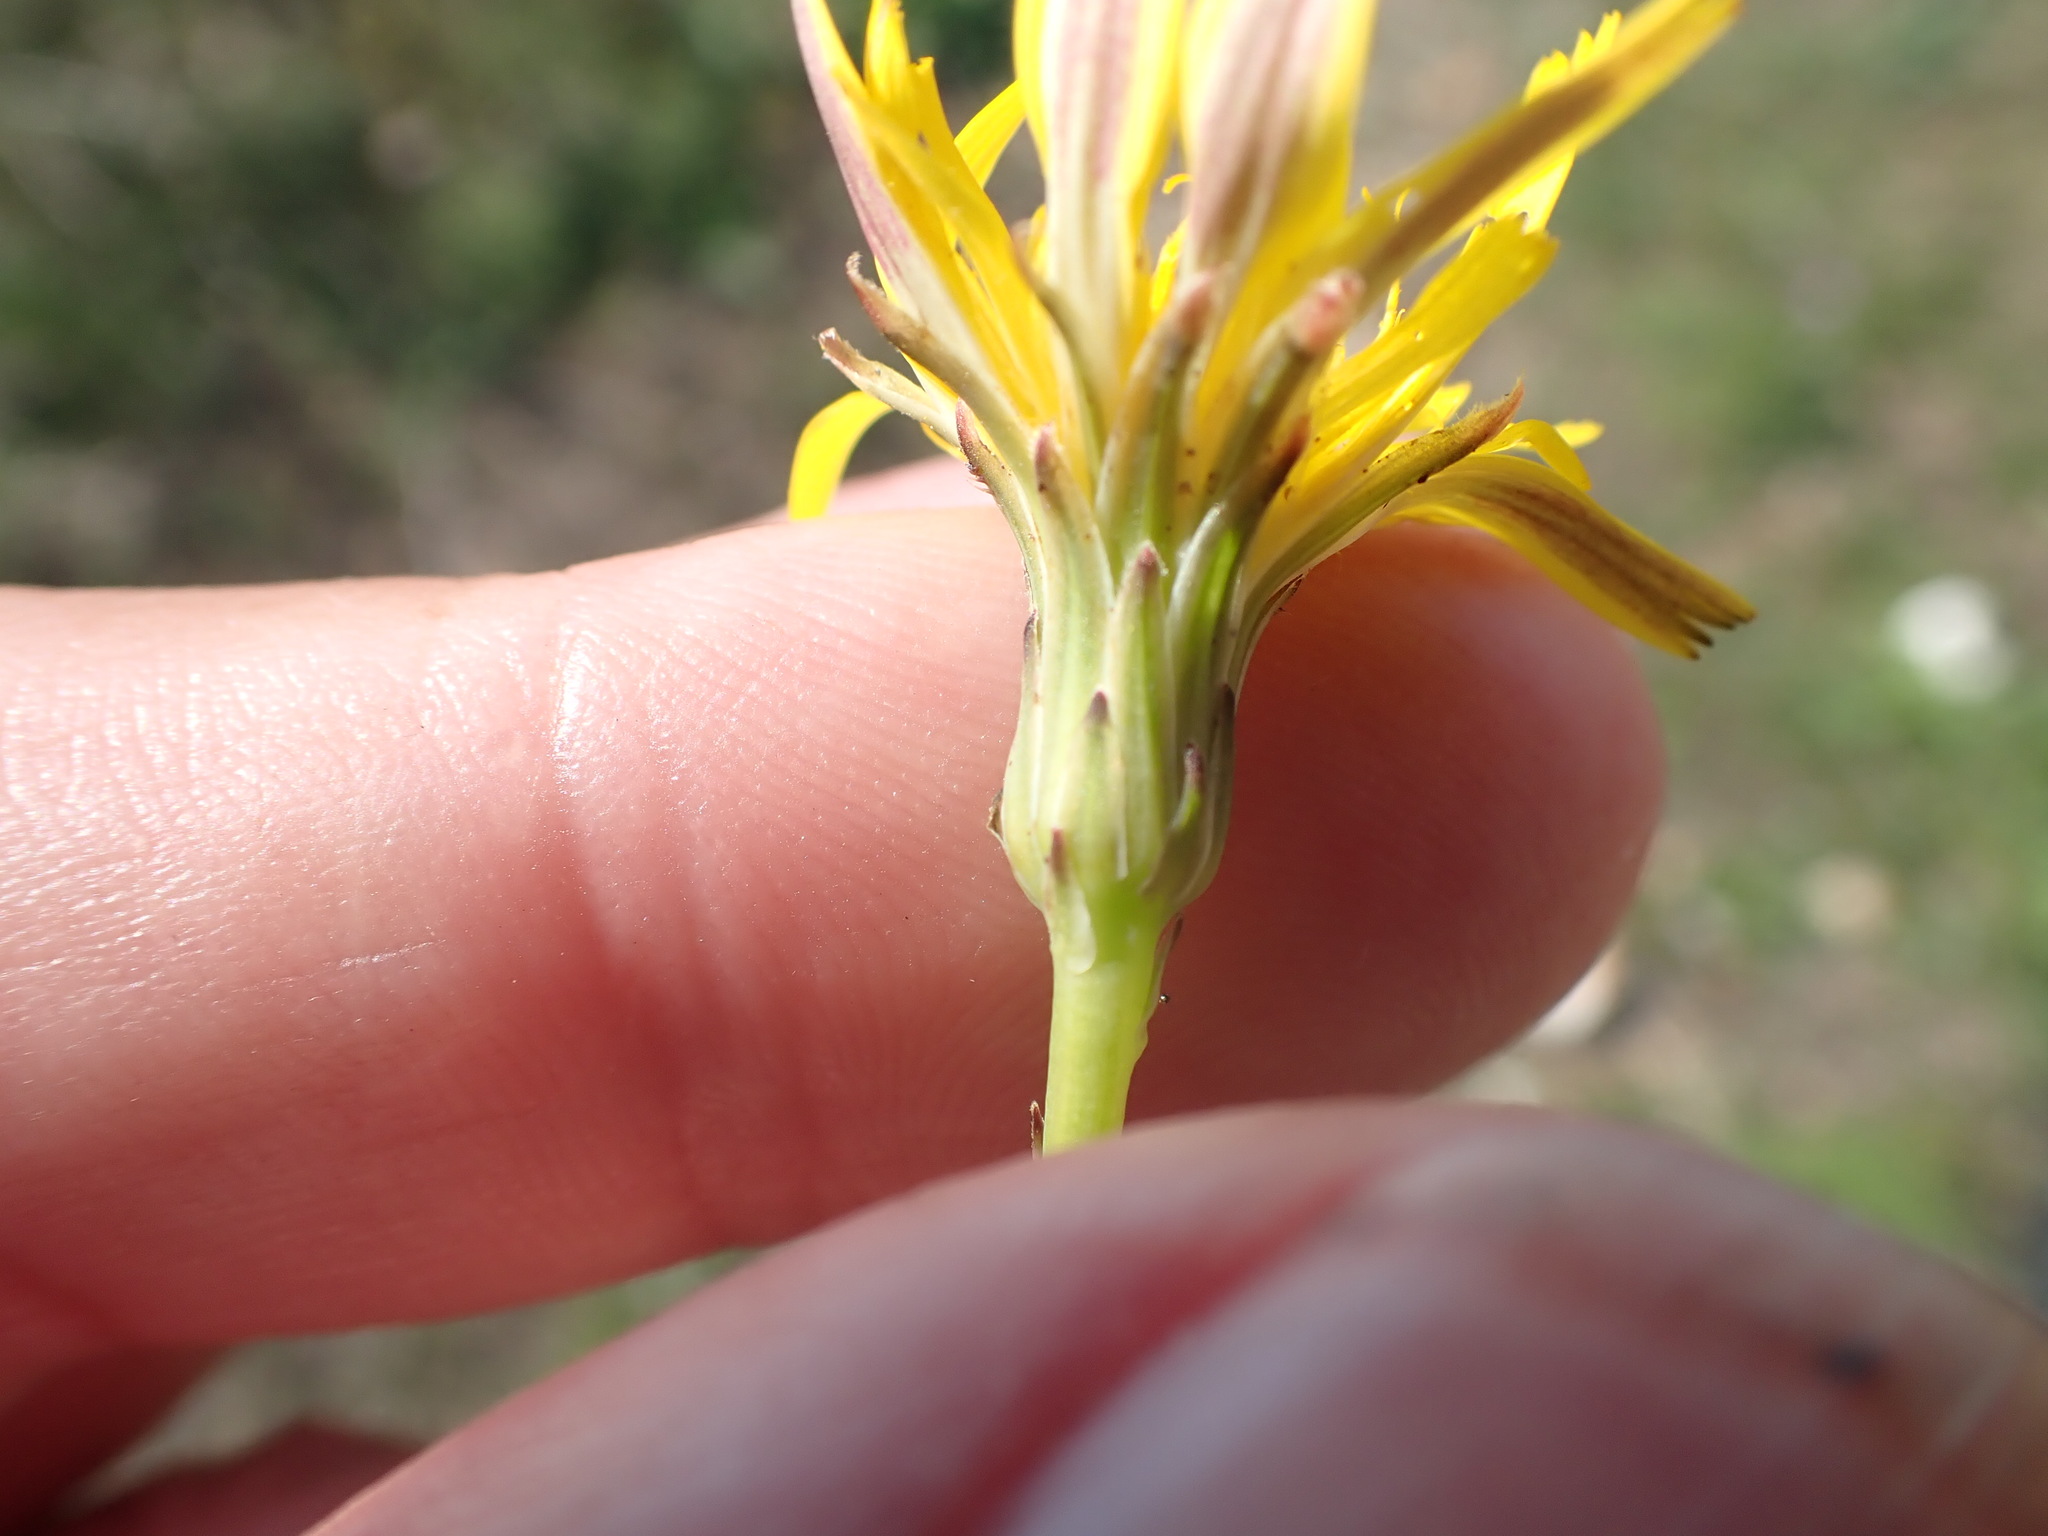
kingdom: Plantae
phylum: Tracheophyta
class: Magnoliopsida
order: Asterales
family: Asteraceae
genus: Hypochaeris
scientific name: Hypochaeris radicata
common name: Flatweed
